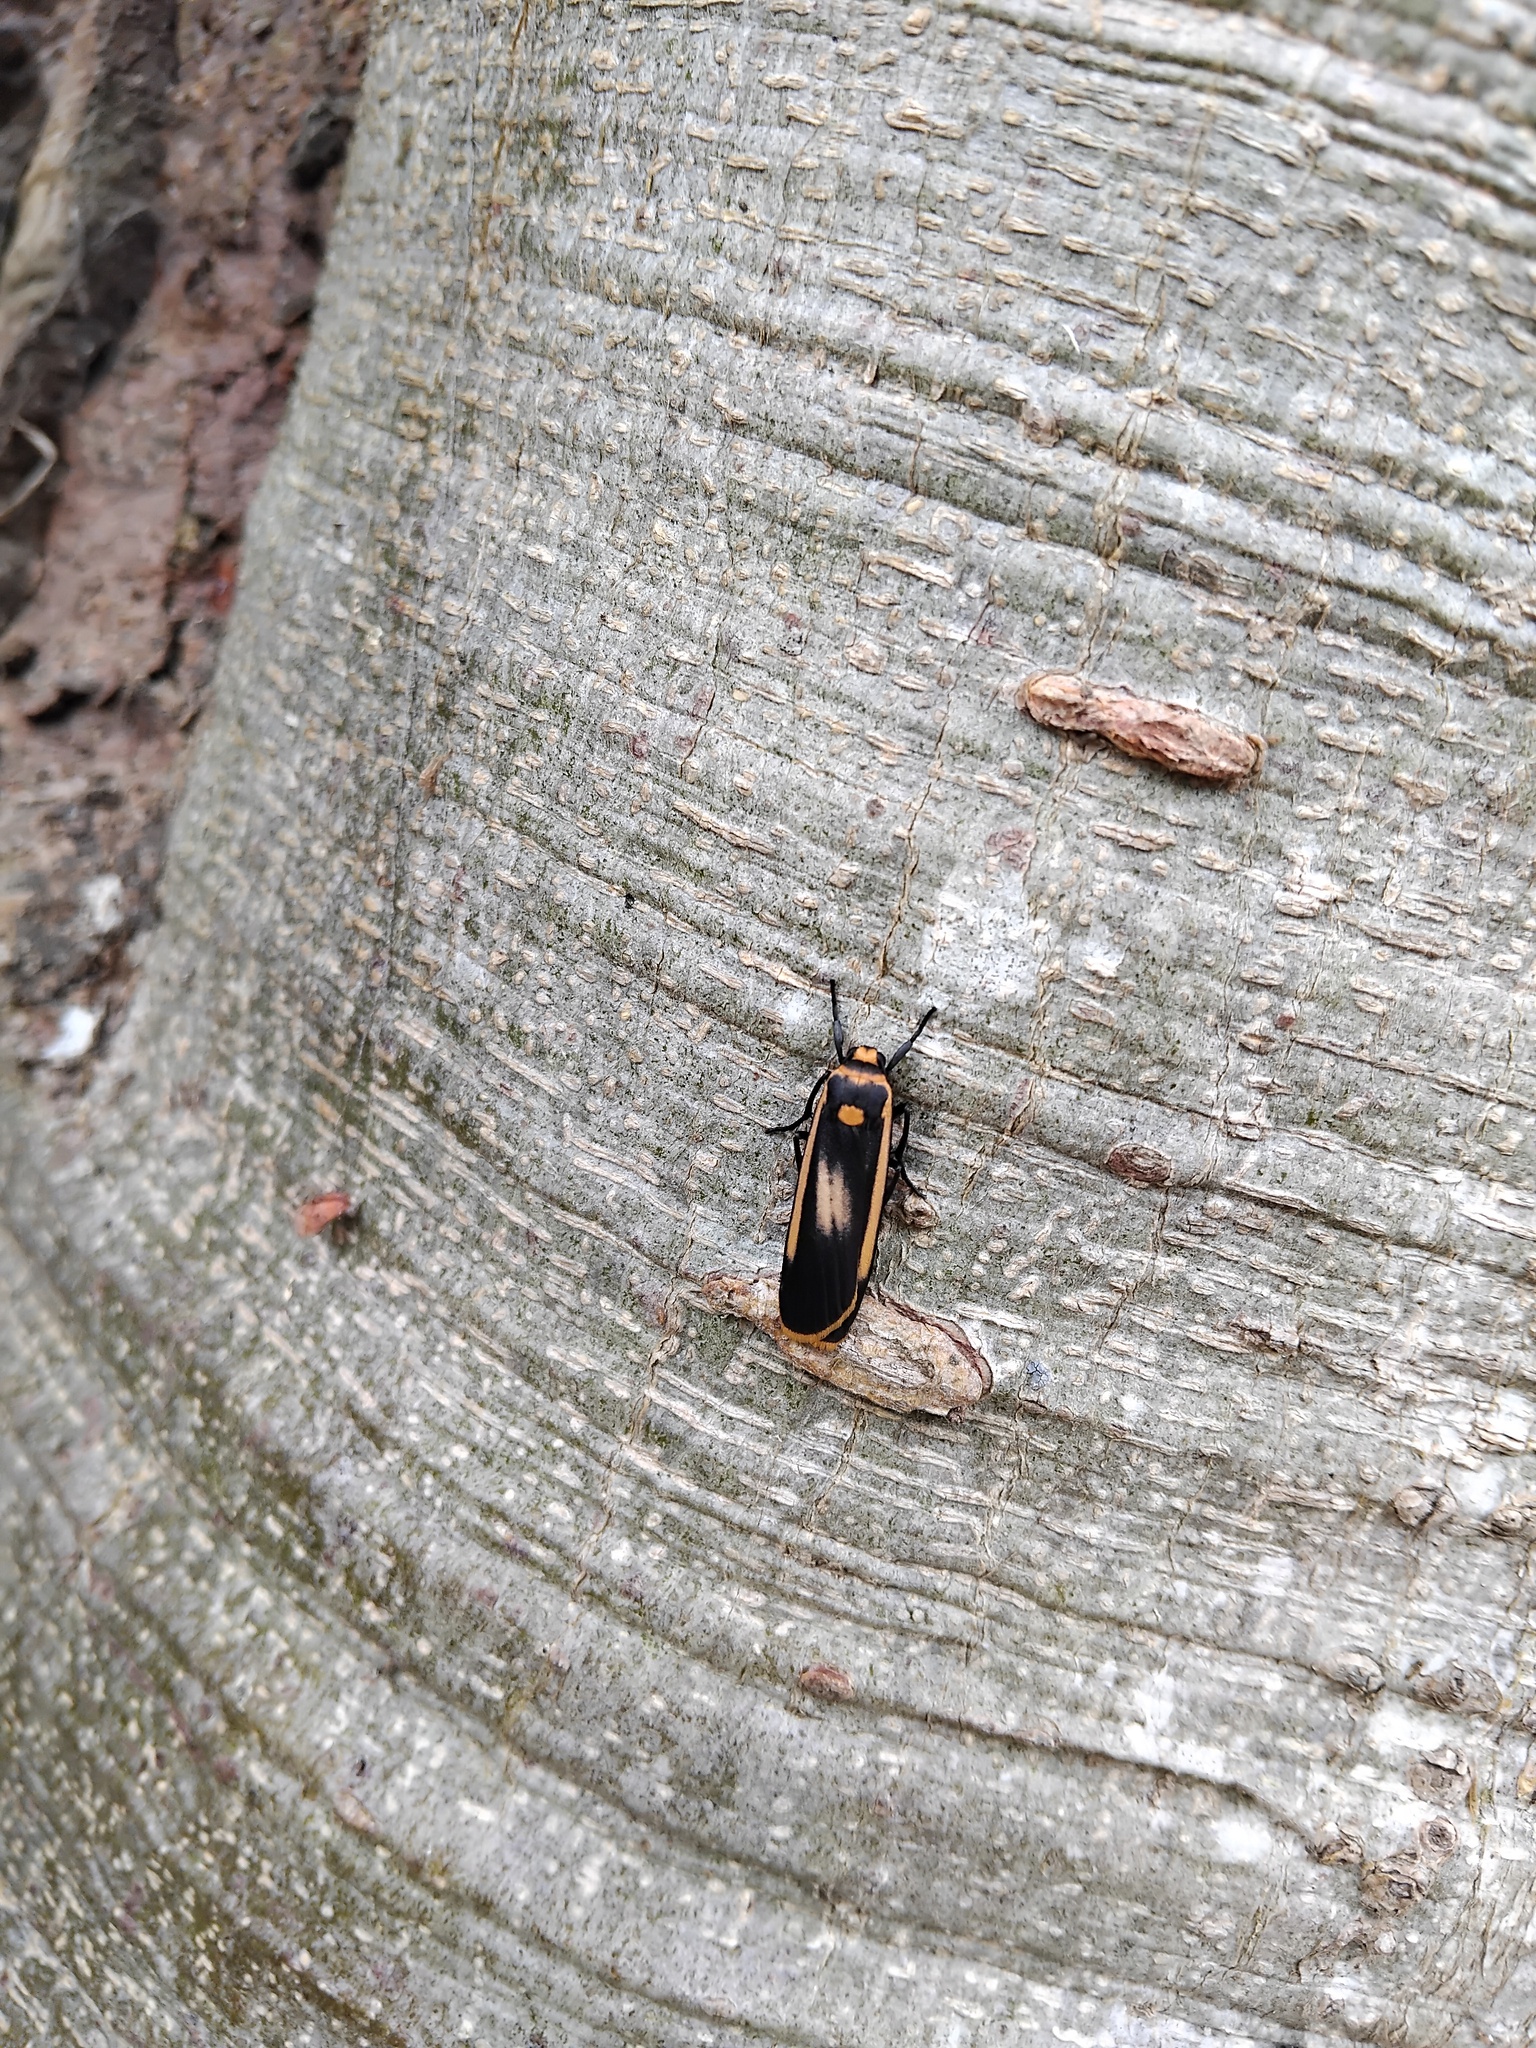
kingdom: Animalia
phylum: Arthropoda
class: Insecta
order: Lepidoptera
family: Erebidae
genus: Brunia
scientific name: Brunia replana
